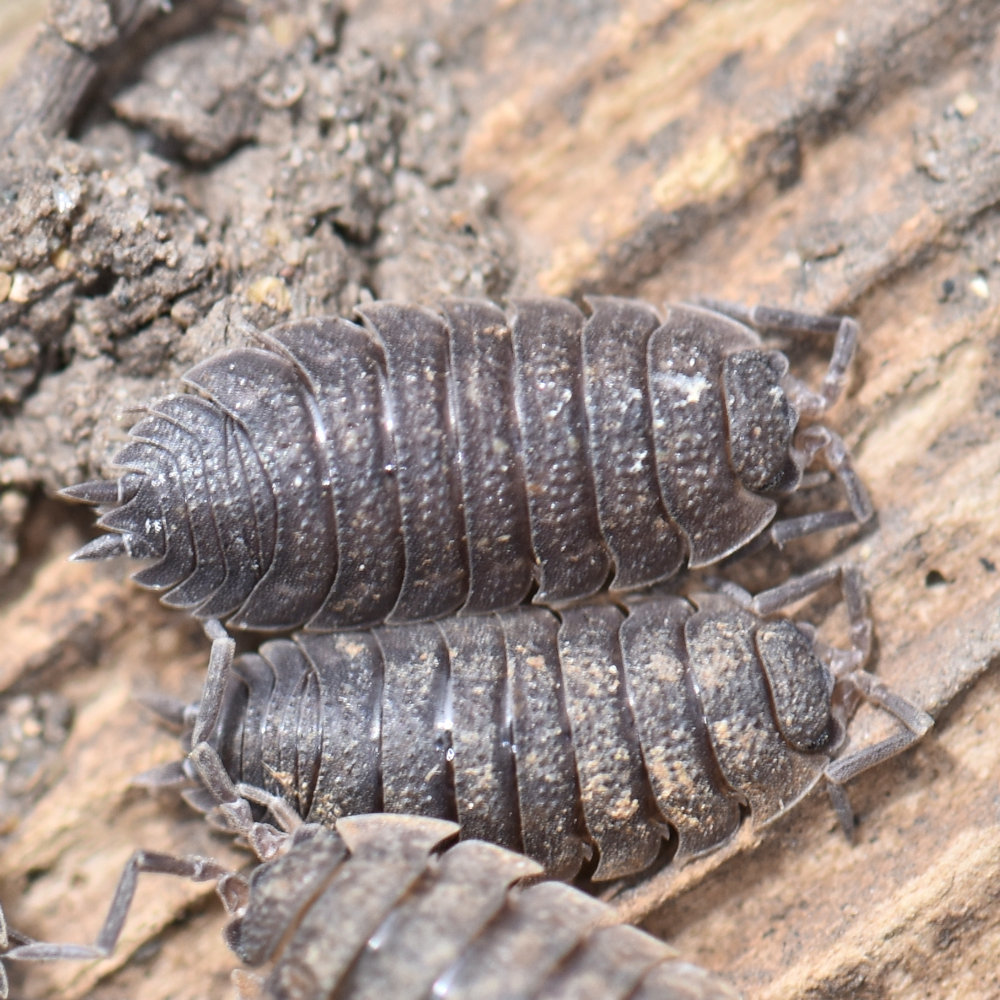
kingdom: Animalia
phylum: Arthropoda
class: Malacostraca
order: Isopoda
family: Porcellionidae
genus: Porcellio
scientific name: Porcellio scaber
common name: Common rough woodlouse
